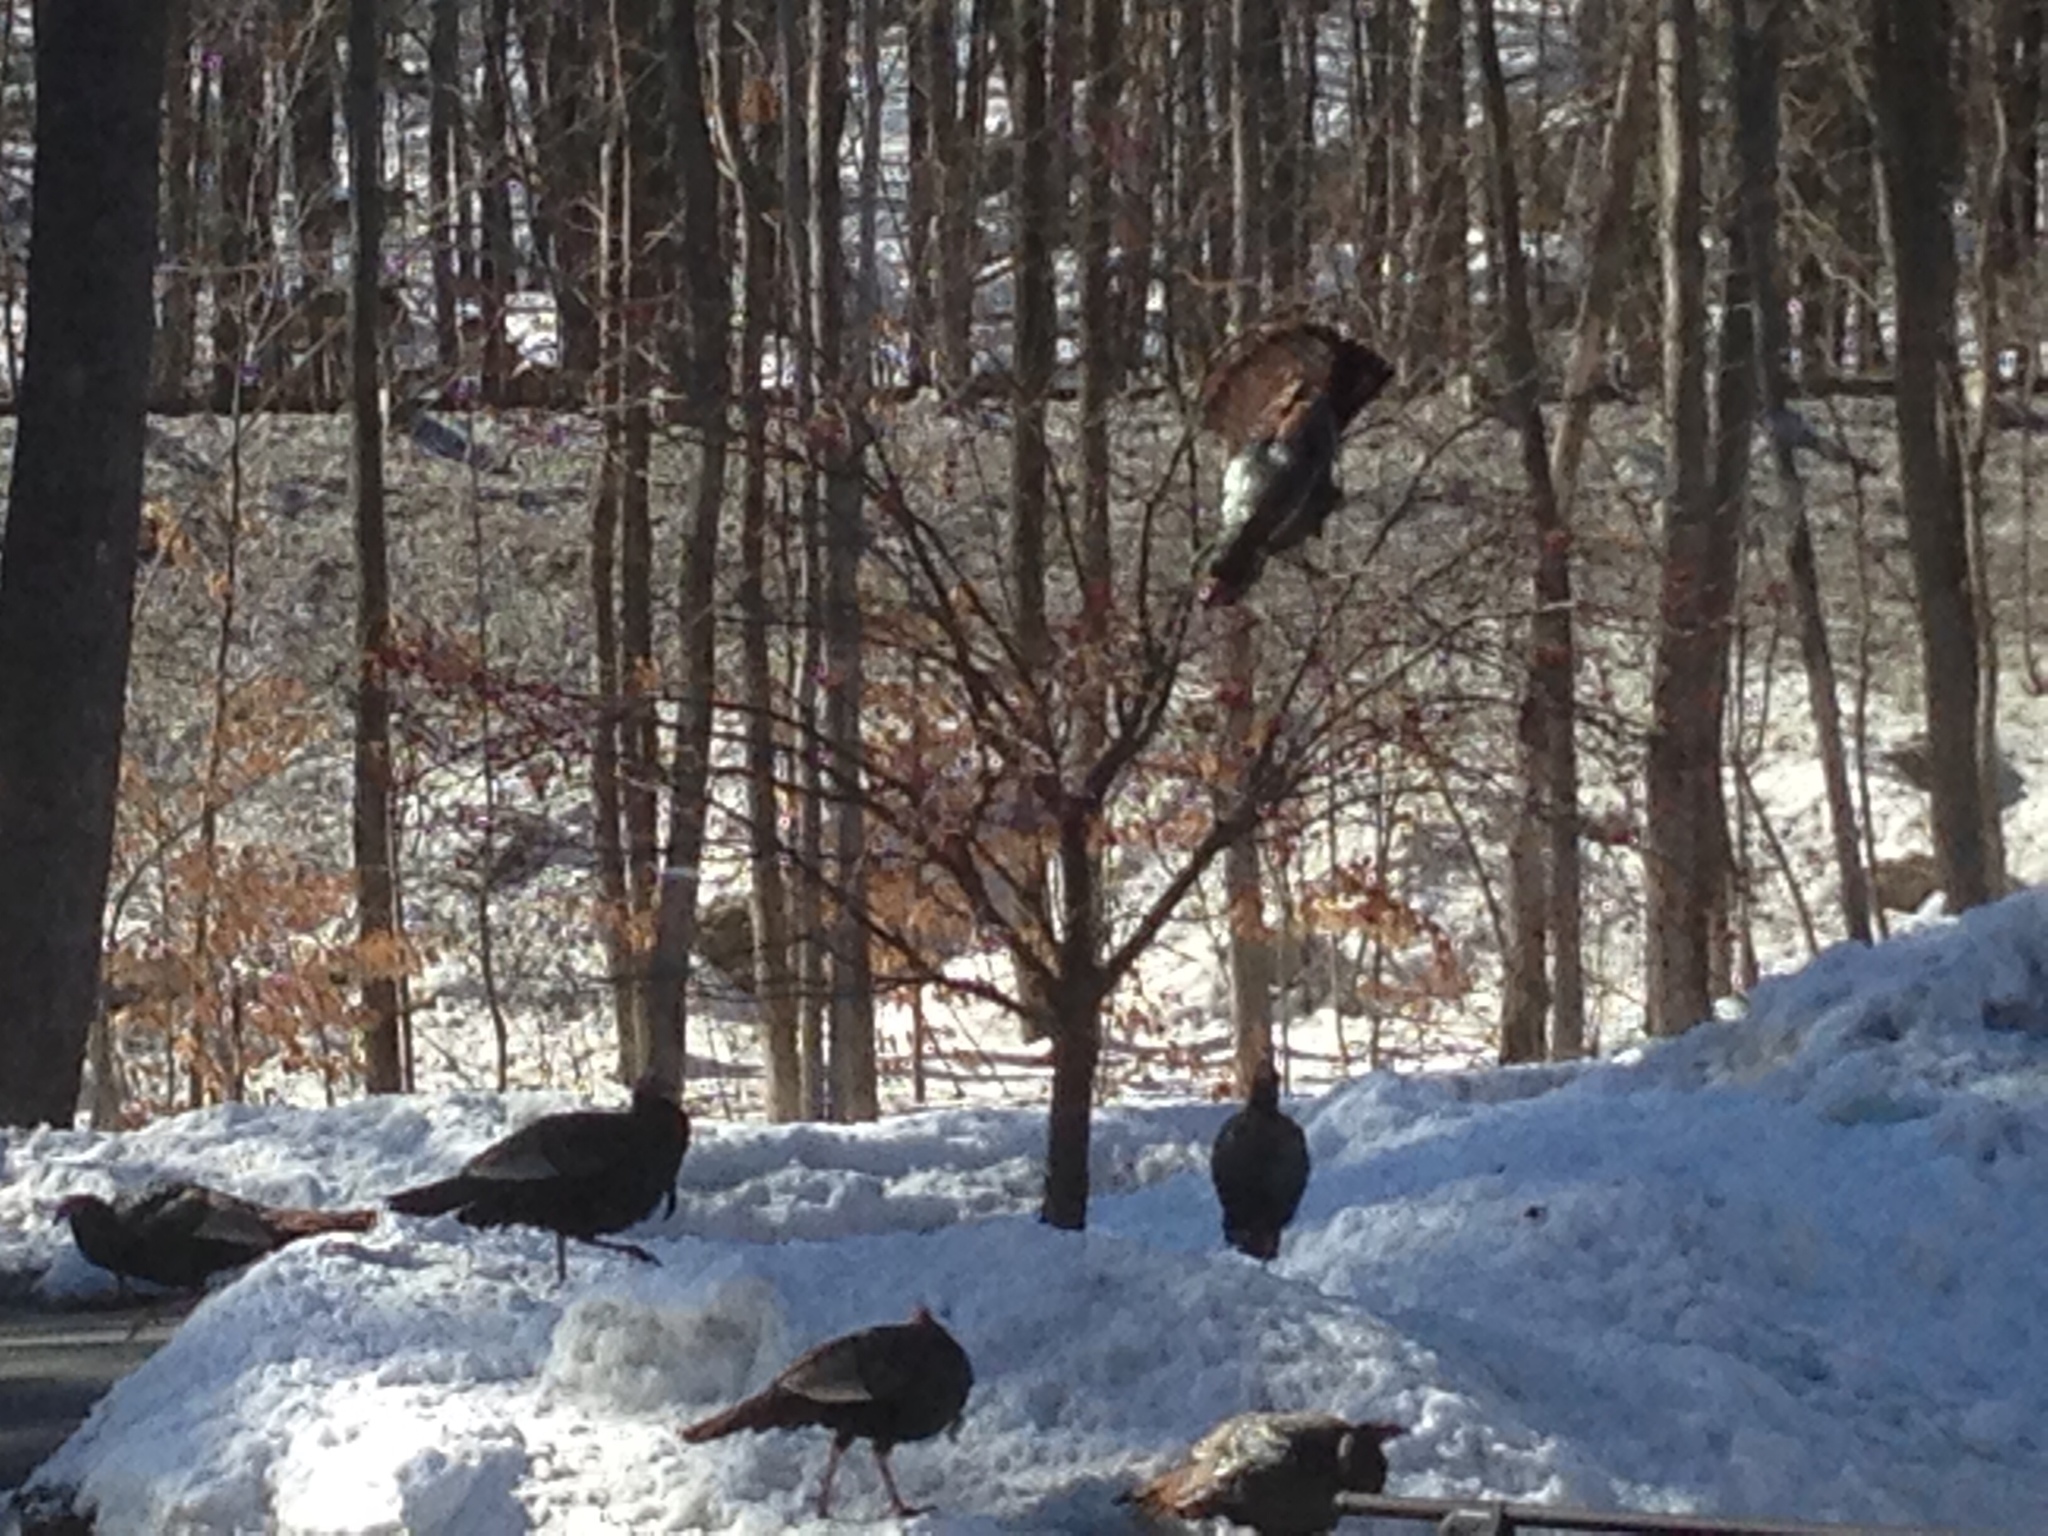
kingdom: Animalia
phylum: Chordata
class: Aves
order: Galliformes
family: Phasianidae
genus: Meleagris
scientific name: Meleagris gallopavo
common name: Wild turkey
